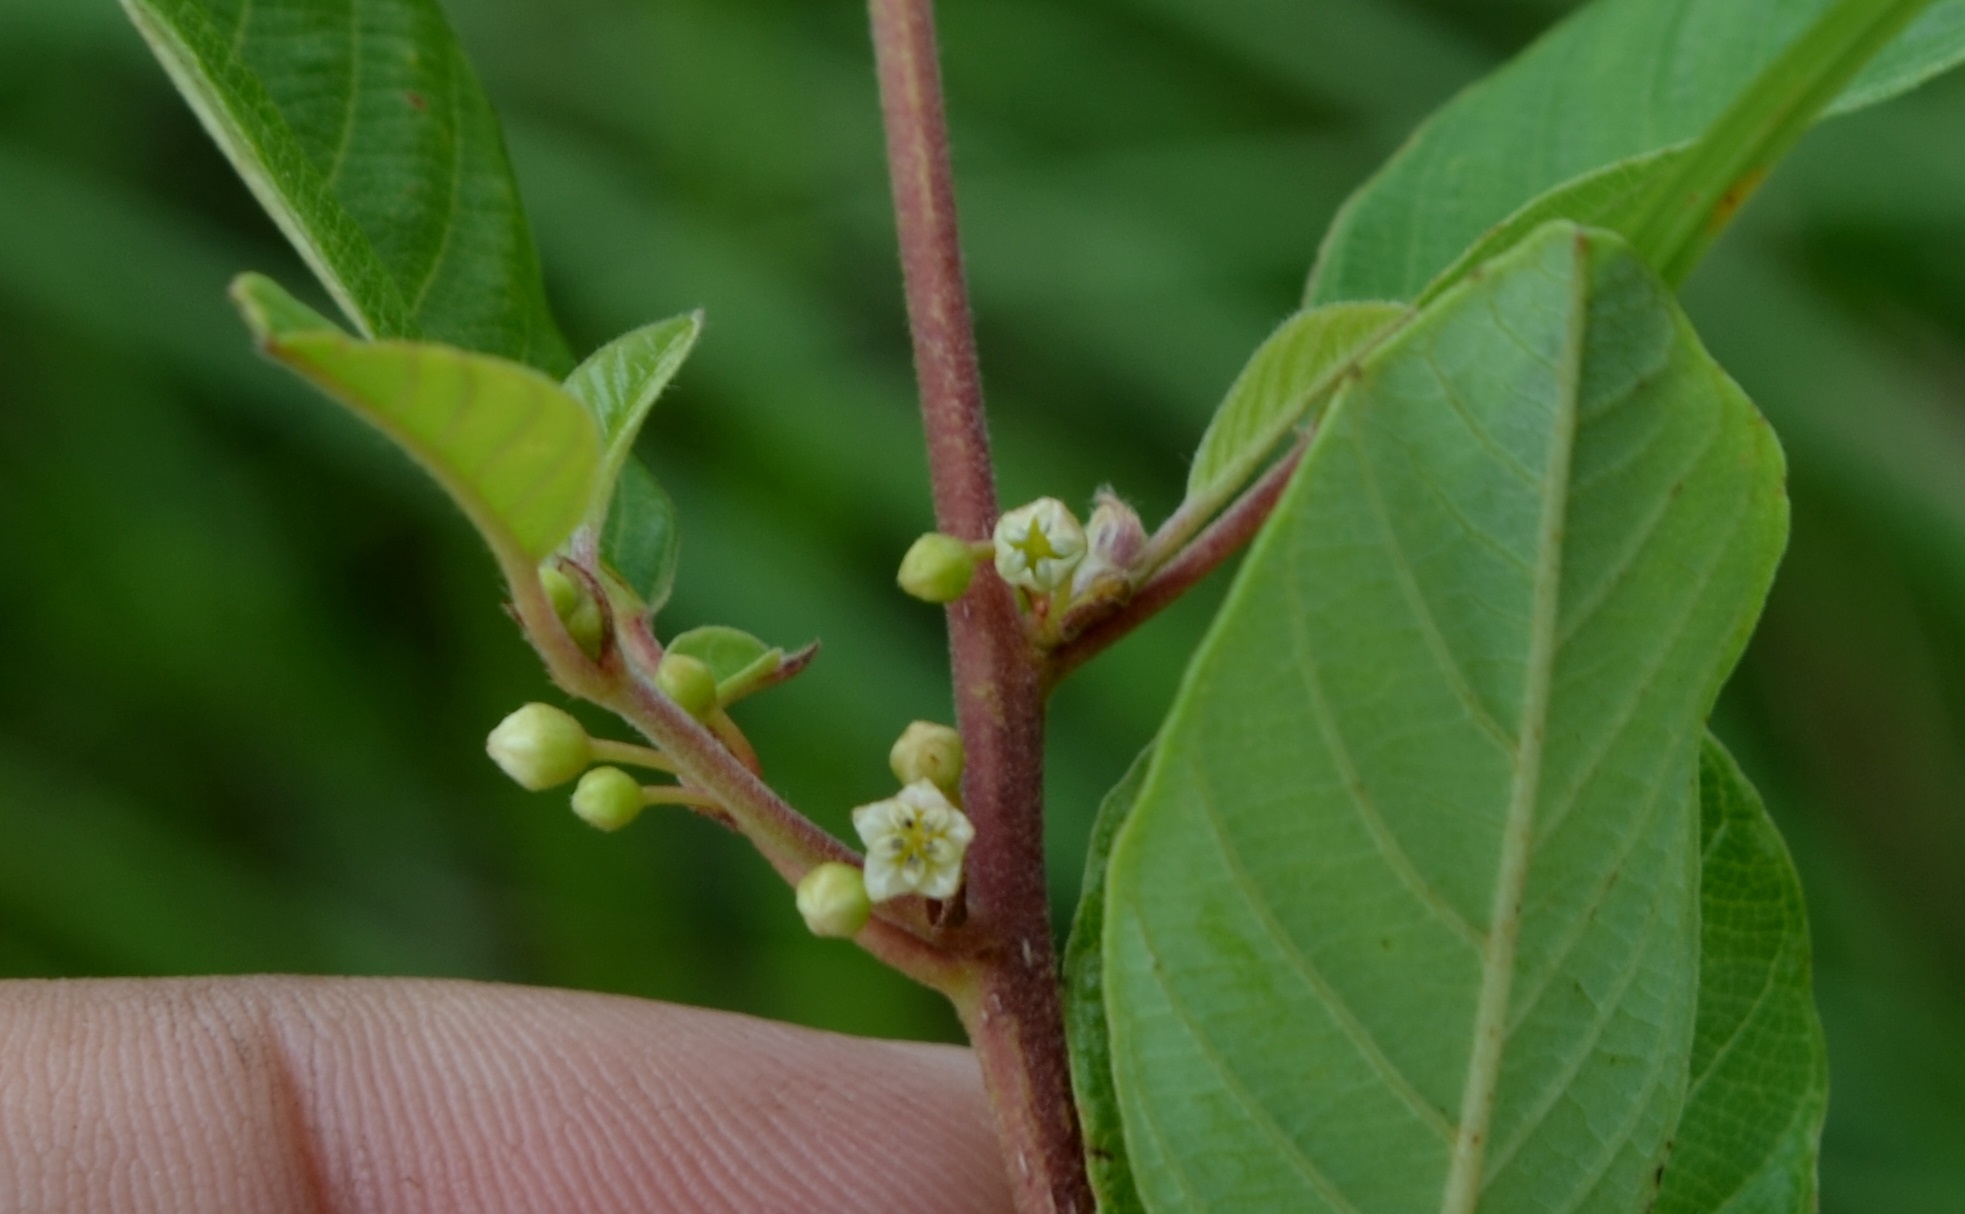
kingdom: Plantae
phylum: Tracheophyta
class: Magnoliopsida
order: Rosales
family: Rhamnaceae
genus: Frangula
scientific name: Frangula alnus
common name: Alder buckthorn
